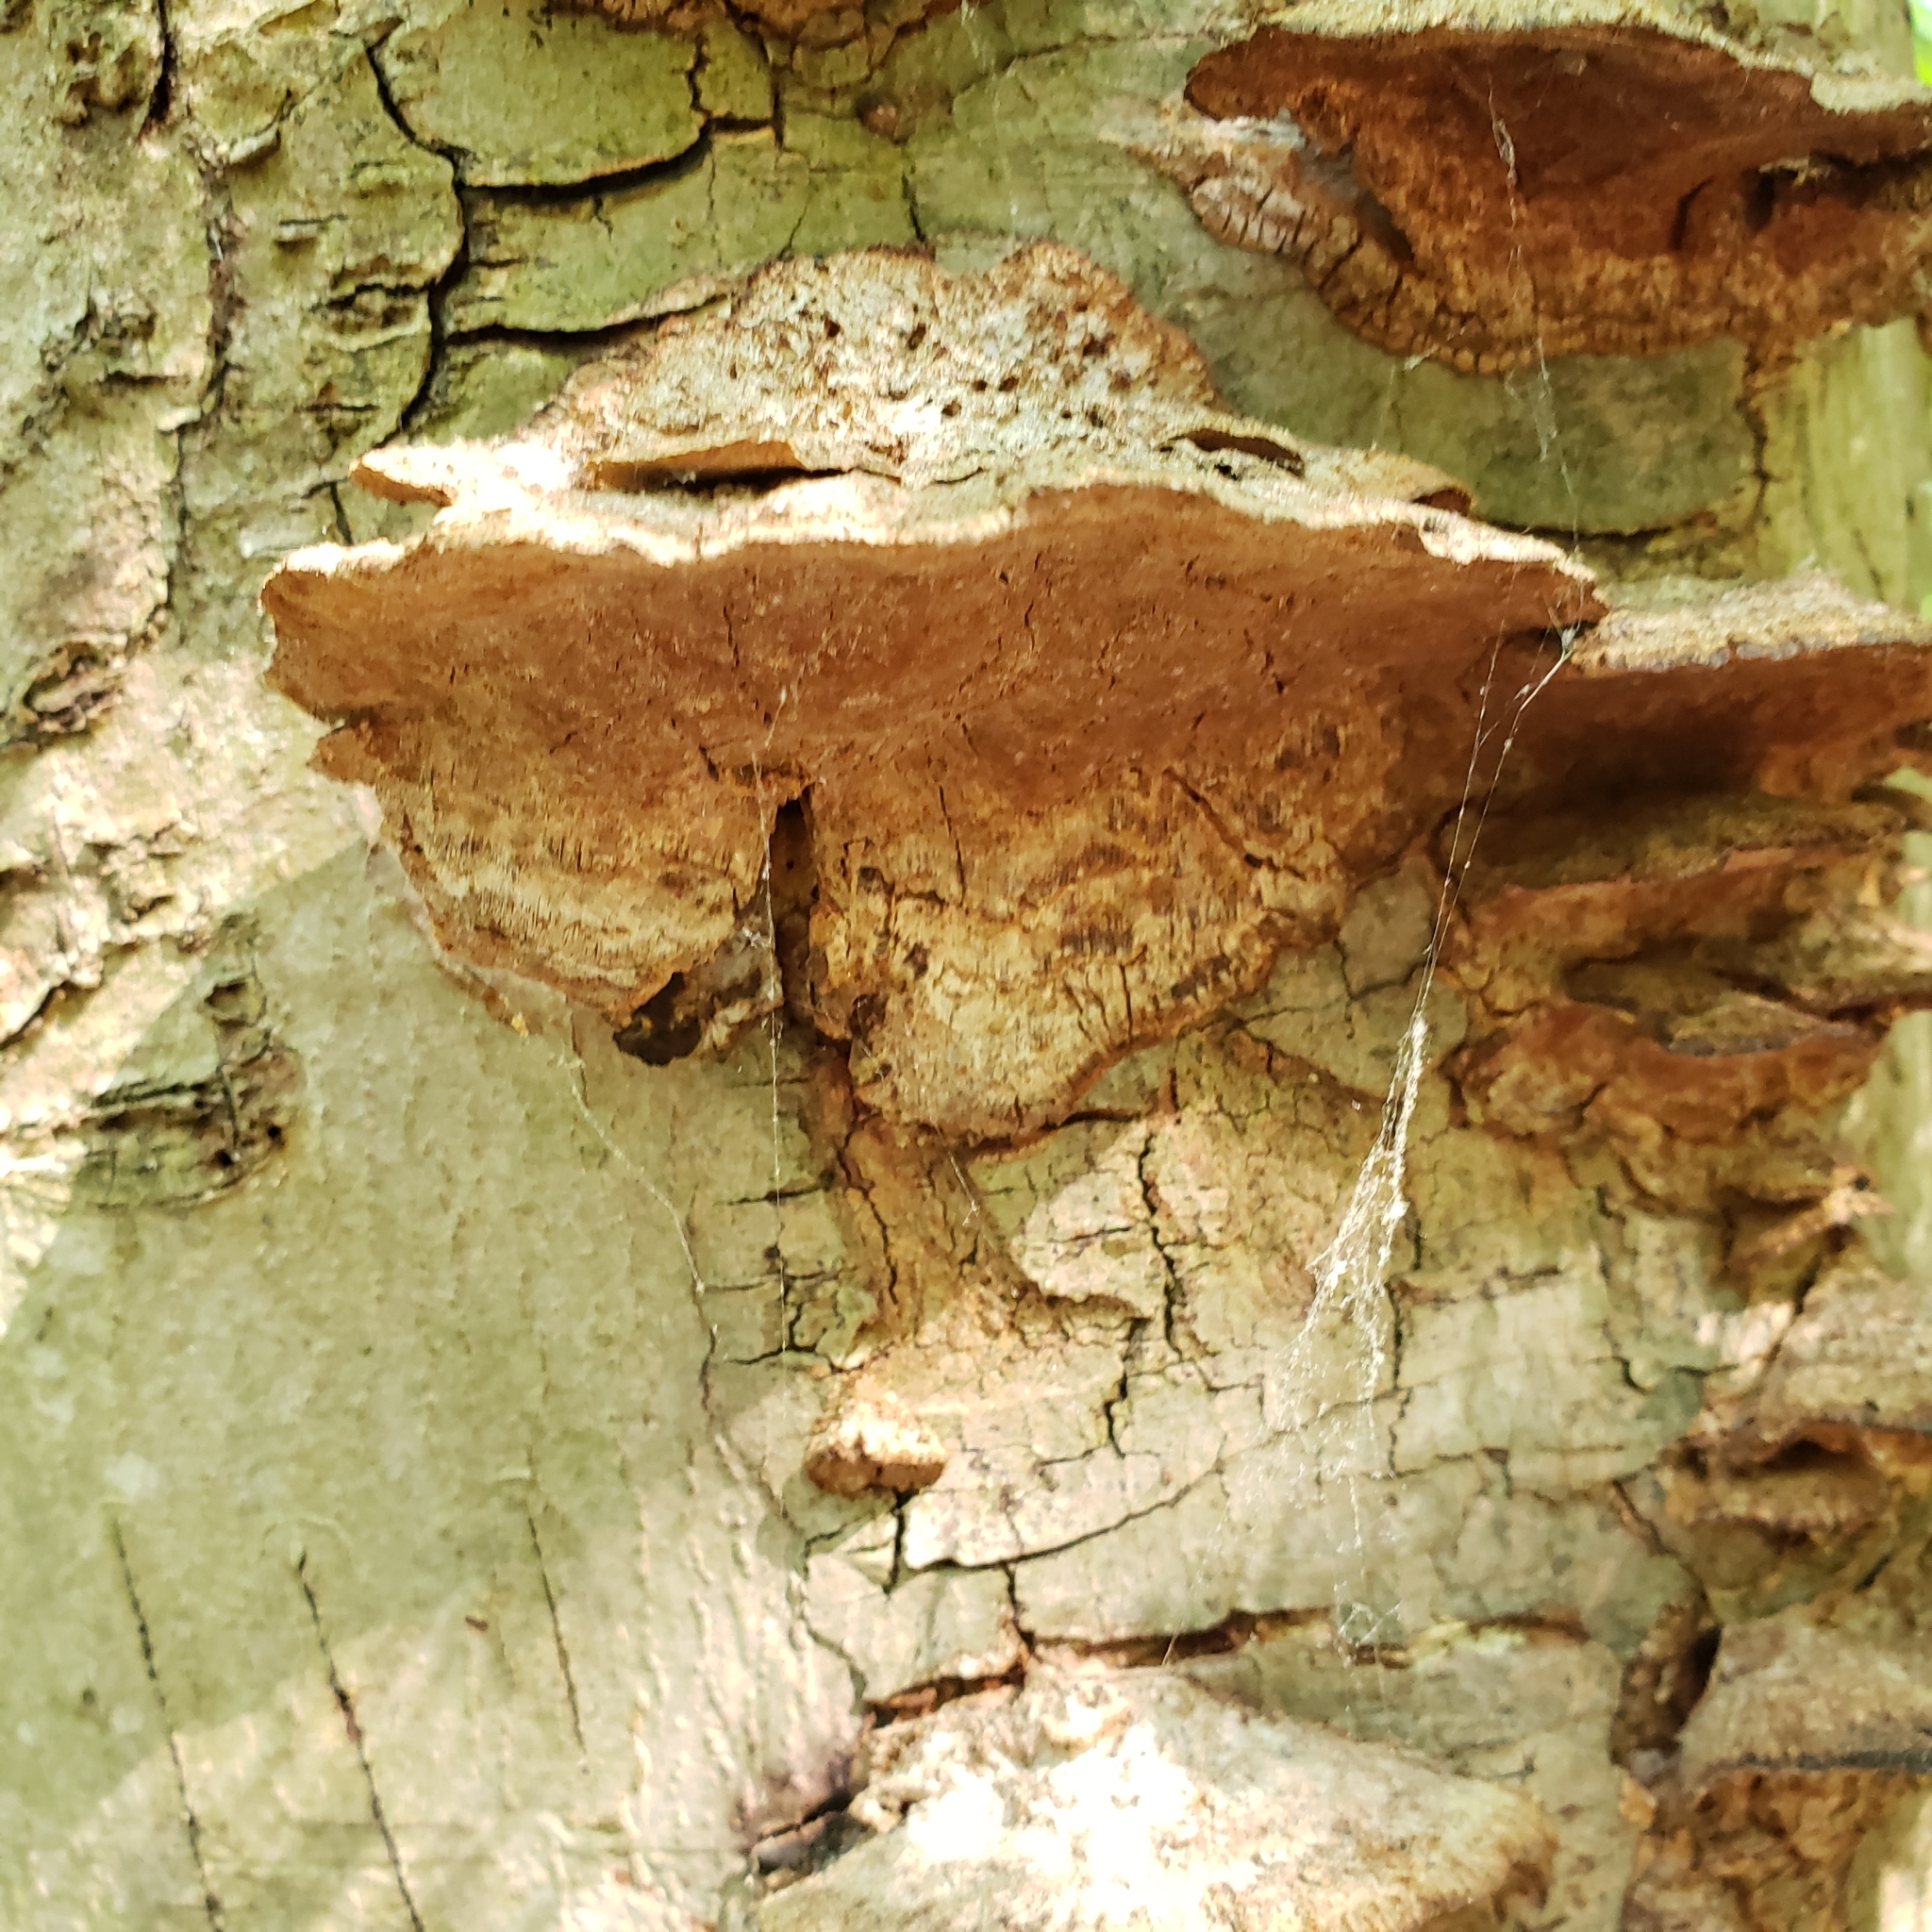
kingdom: Fungi
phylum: Basidiomycota
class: Agaricomycetes
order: Hymenochaetales
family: Hymenochaetaceae
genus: Phellinus
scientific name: Phellinus gilvus
